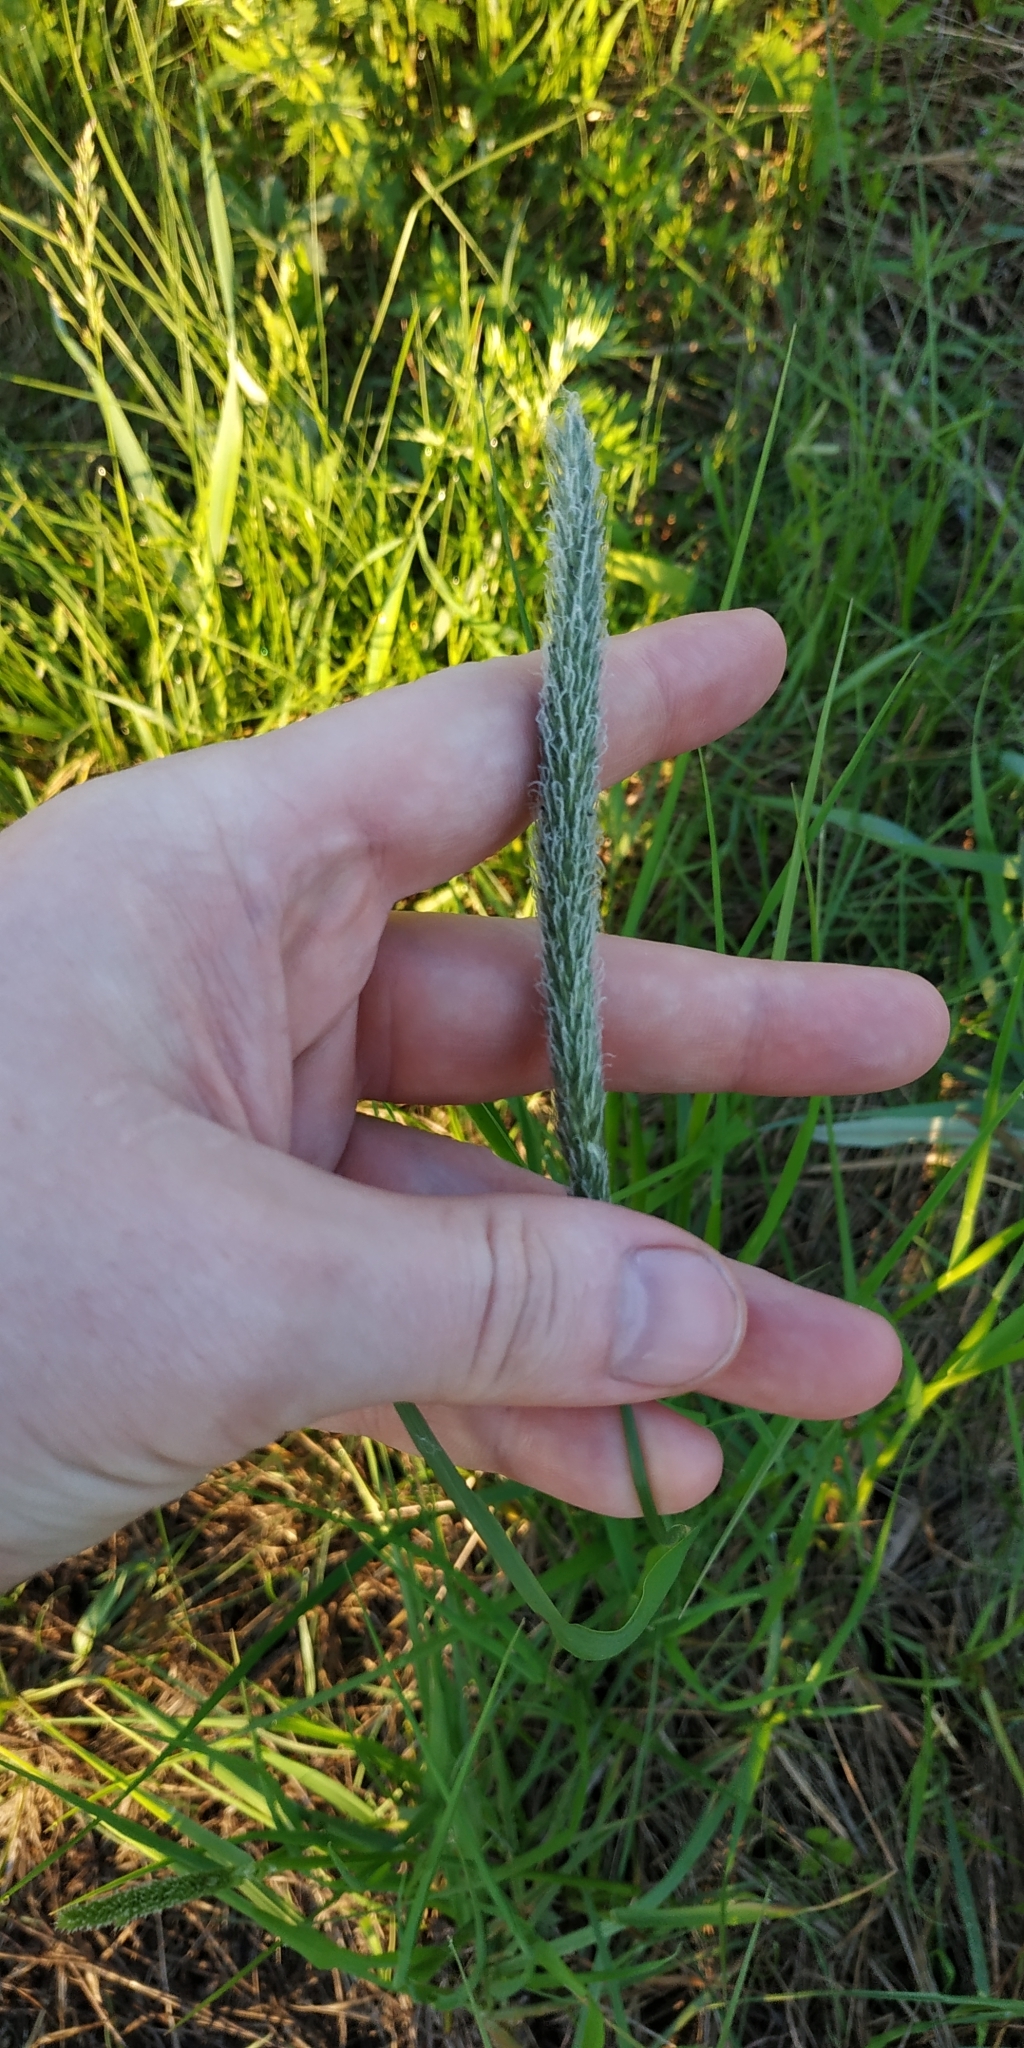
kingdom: Plantae
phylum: Tracheophyta
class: Liliopsida
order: Poales
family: Poaceae
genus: Alopecurus
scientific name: Alopecurus pratensis
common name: Meadow foxtail
